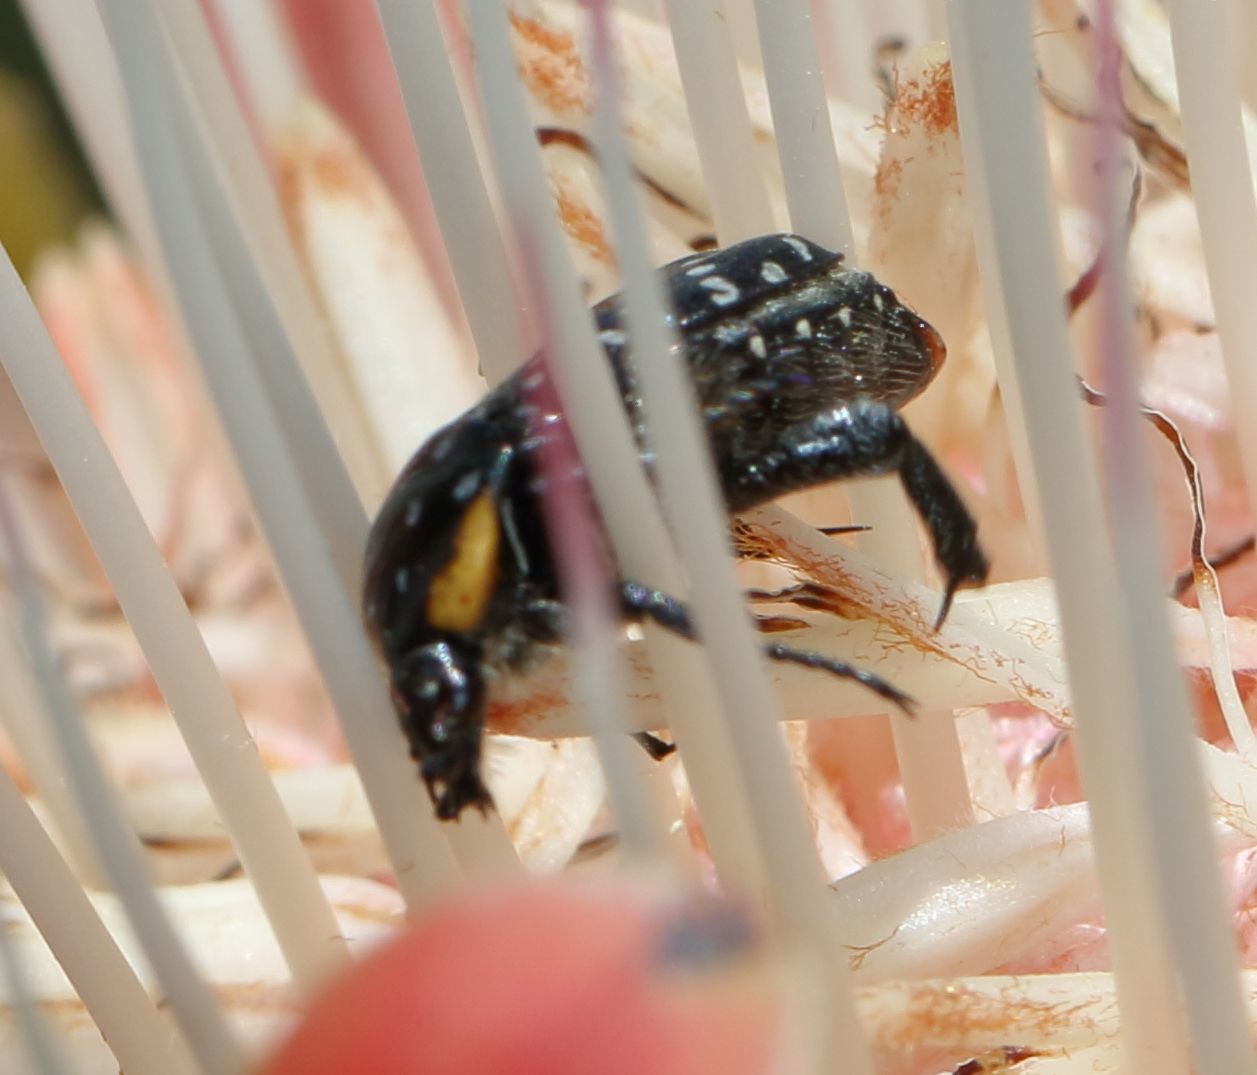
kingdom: Animalia
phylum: Arthropoda
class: Insecta
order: Coleoptera
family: Scarabaeidae
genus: Oxythyrea
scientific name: Oxythyrea
